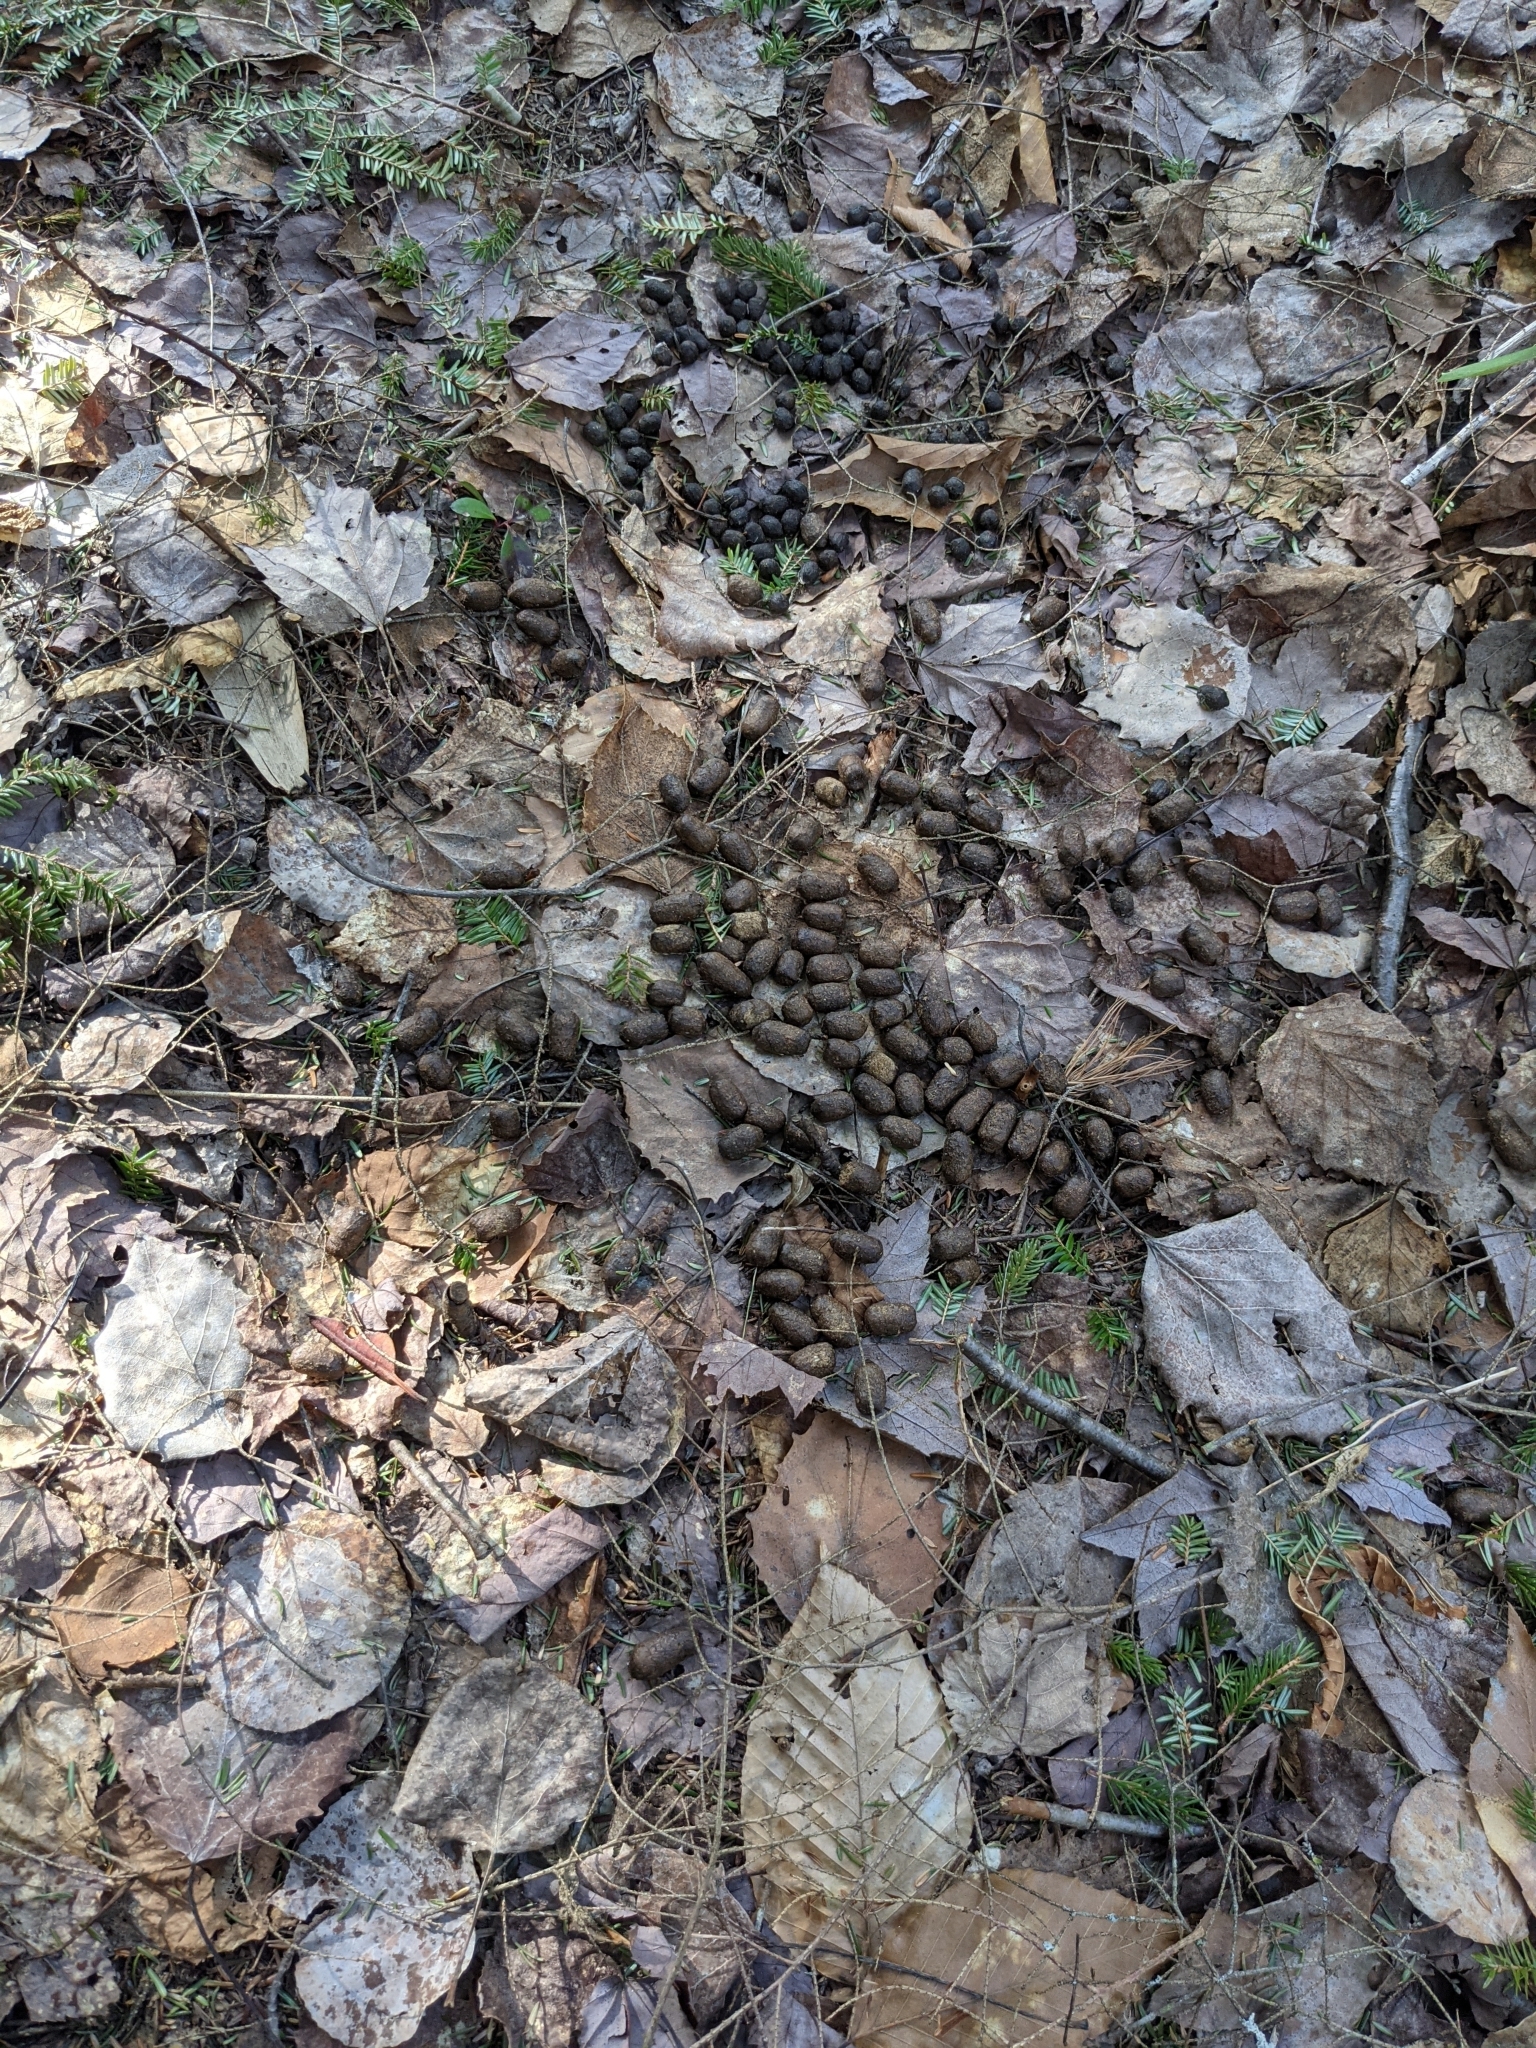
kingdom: Animalia
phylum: Chordata
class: Mammalia
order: Artiodactyla
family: Cervidae
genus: Alces
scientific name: Alces alces
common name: Moose
